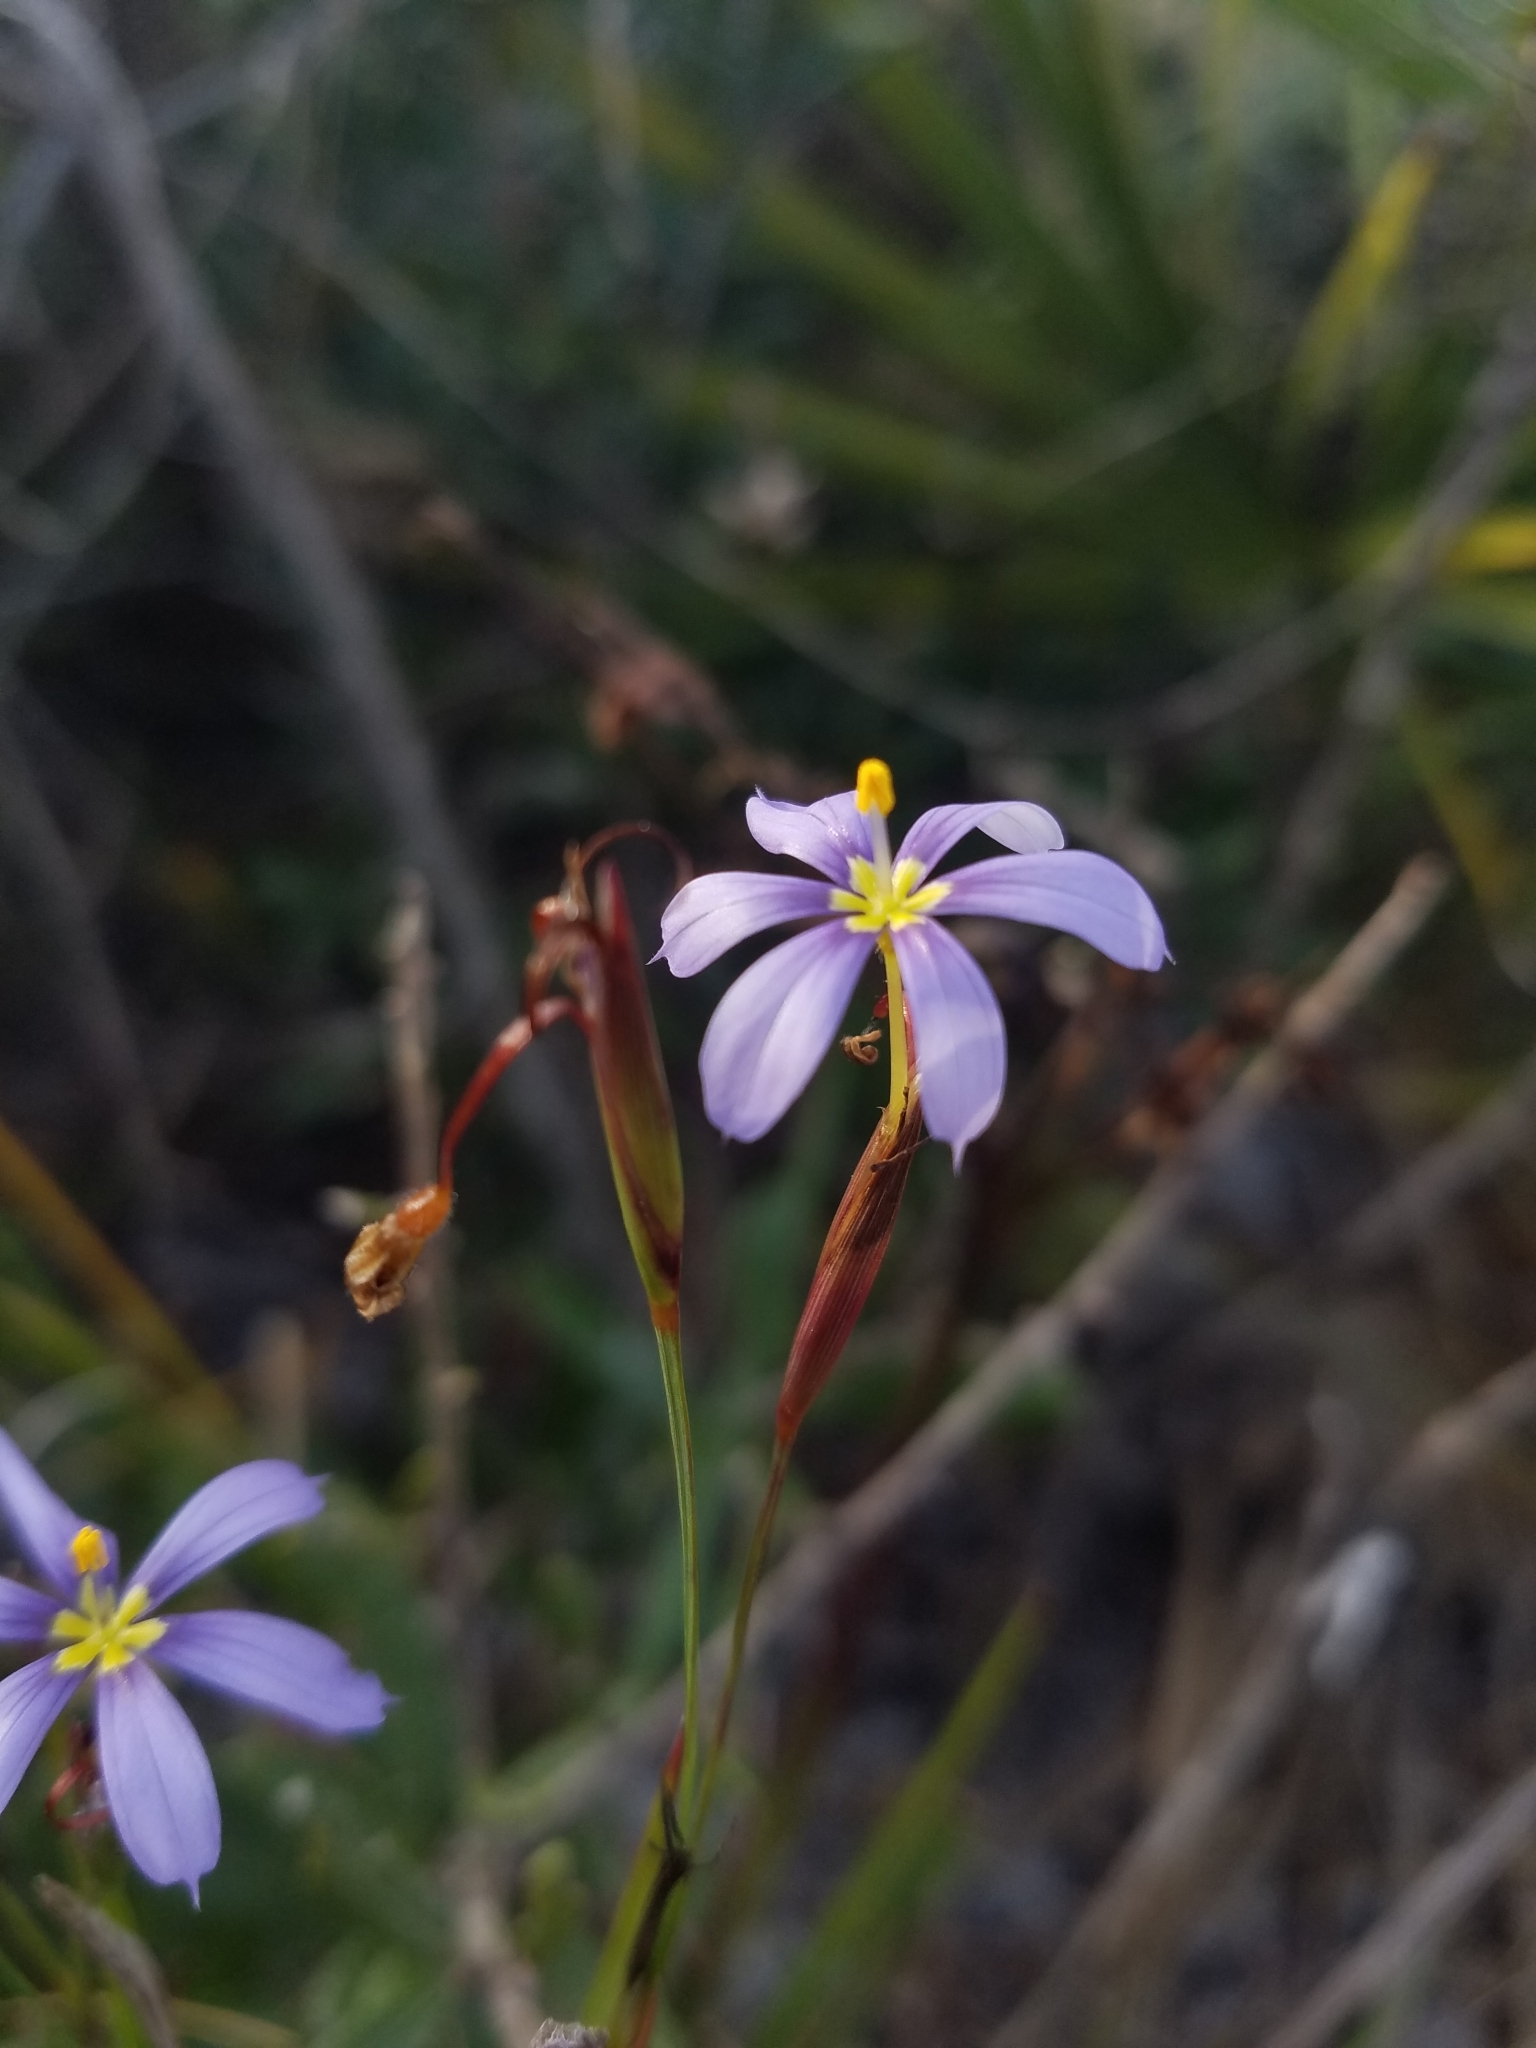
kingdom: Plantae
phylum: Tracheophyta
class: Liliopsida
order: Asparagales
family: Iridaceae
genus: Sisyrinchium
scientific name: Sisyrinchium xerophyllum
